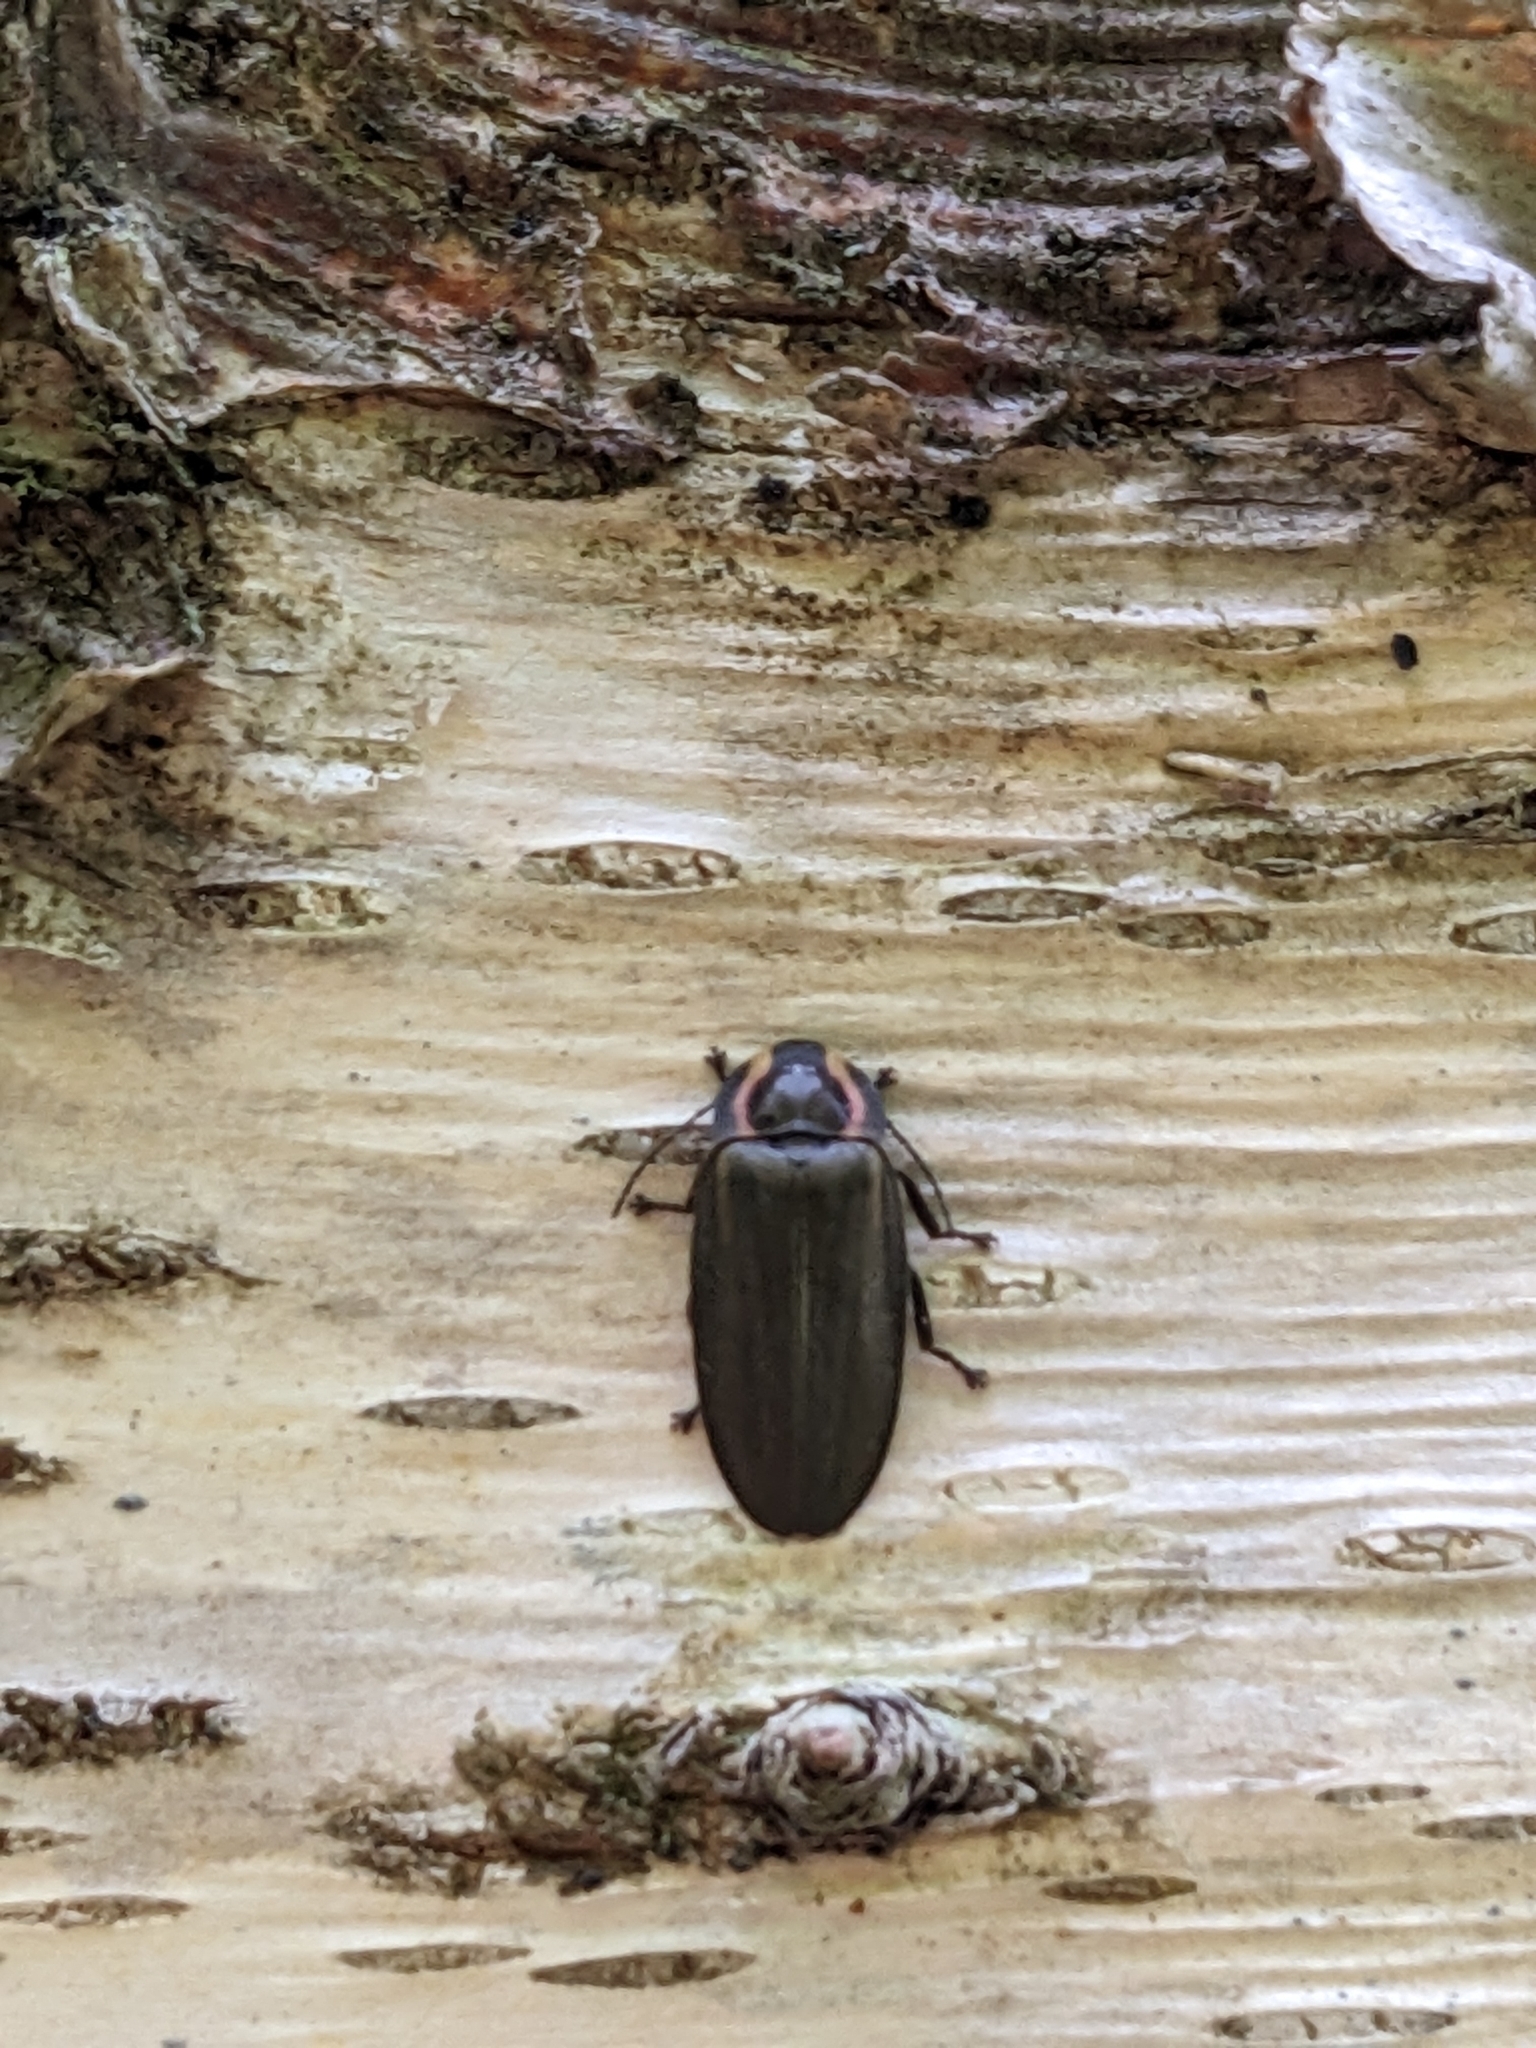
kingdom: Animalia
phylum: Arthropoda
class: Insecta
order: Coleoptera
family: Lampyridae
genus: Photinus
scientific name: Photinus corrusca
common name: Winter firefly
